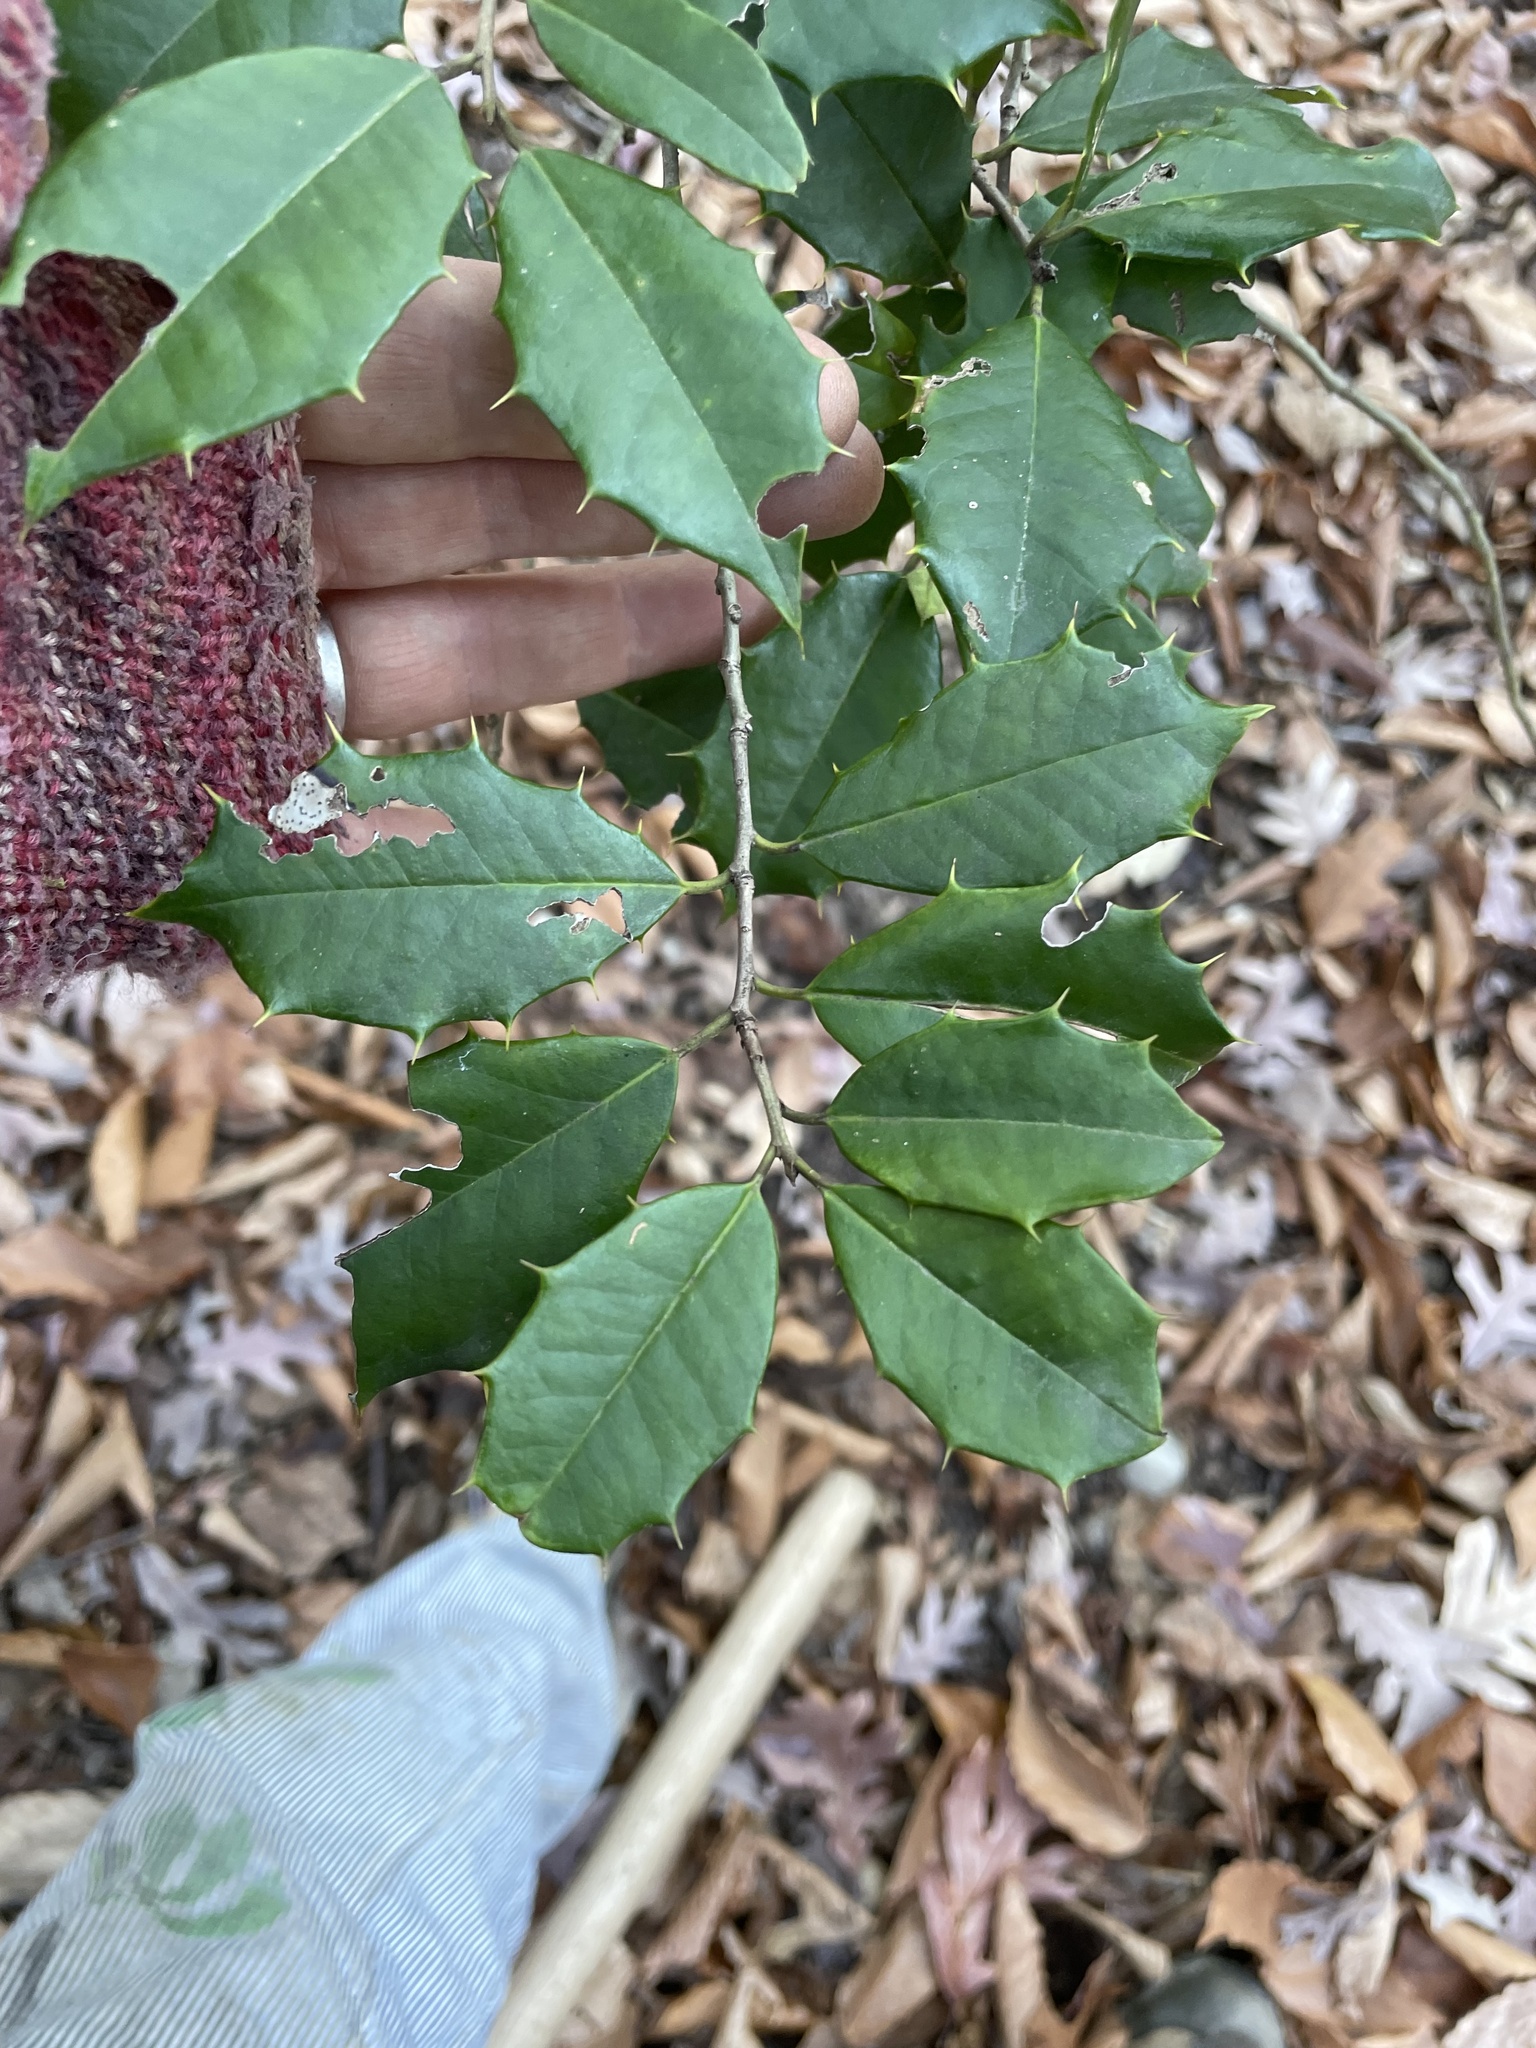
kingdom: Plantae
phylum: Tracheophyta
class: Magnoliopsida
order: Aquifoliales
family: Aquifoliaceae
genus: Ilex
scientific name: Ilex opaca
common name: American holly
